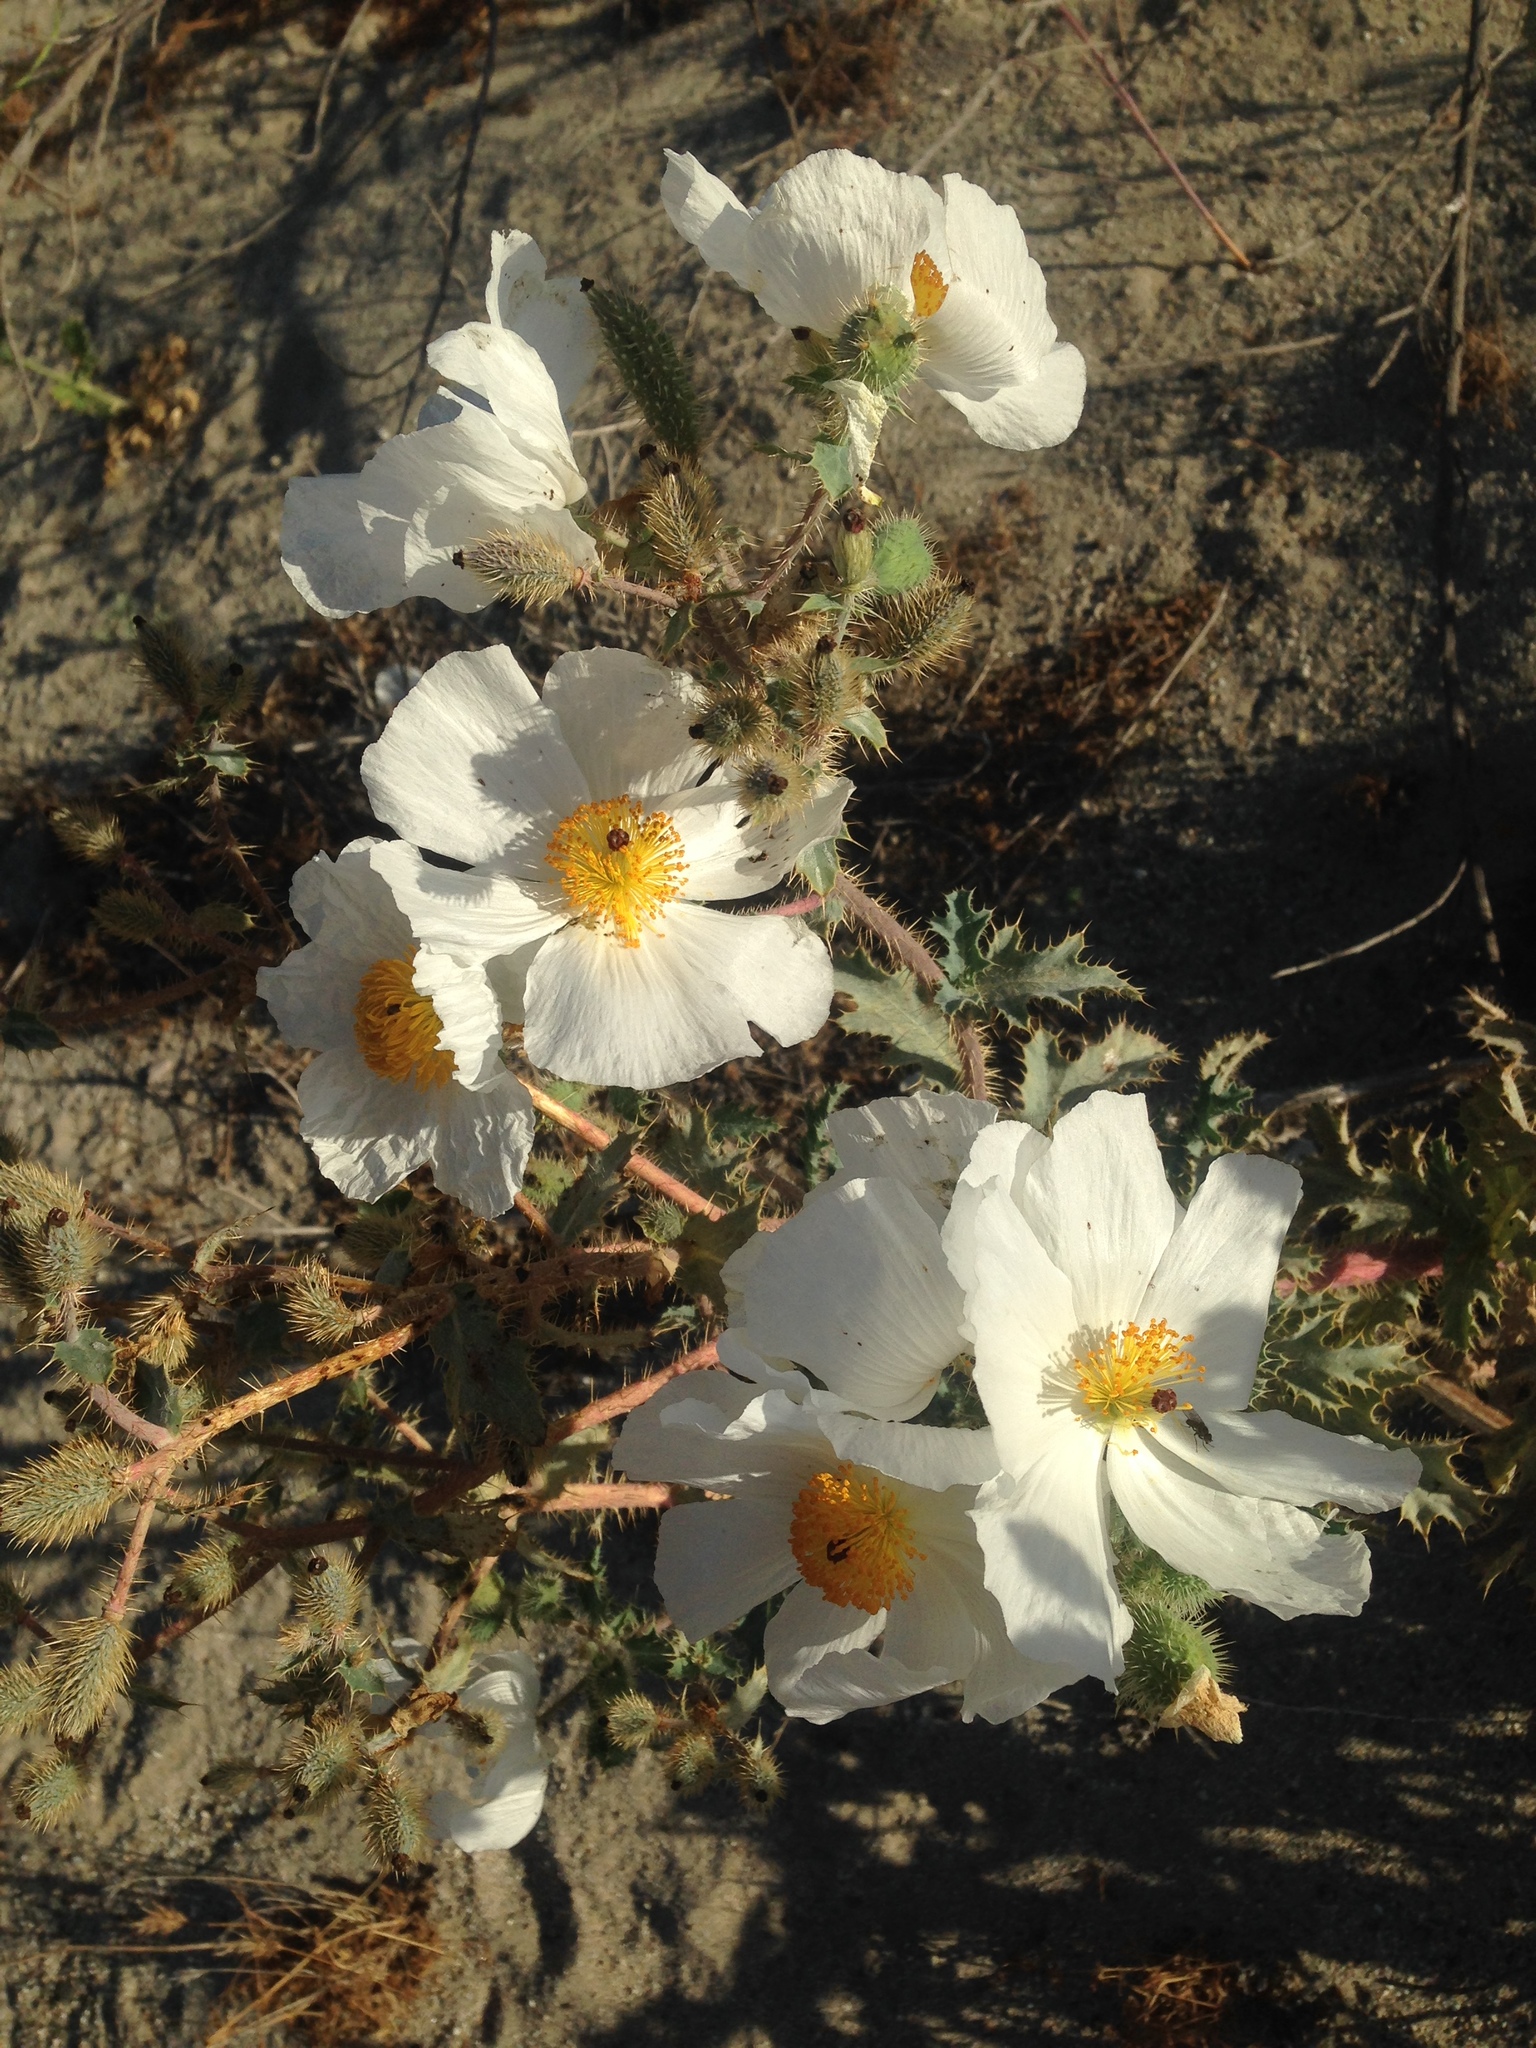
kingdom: Plantae
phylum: Tracheophyta
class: Magnoliopsida
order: Ranunculales
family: Papaveraceae
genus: Argemone
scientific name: Argemone munita
